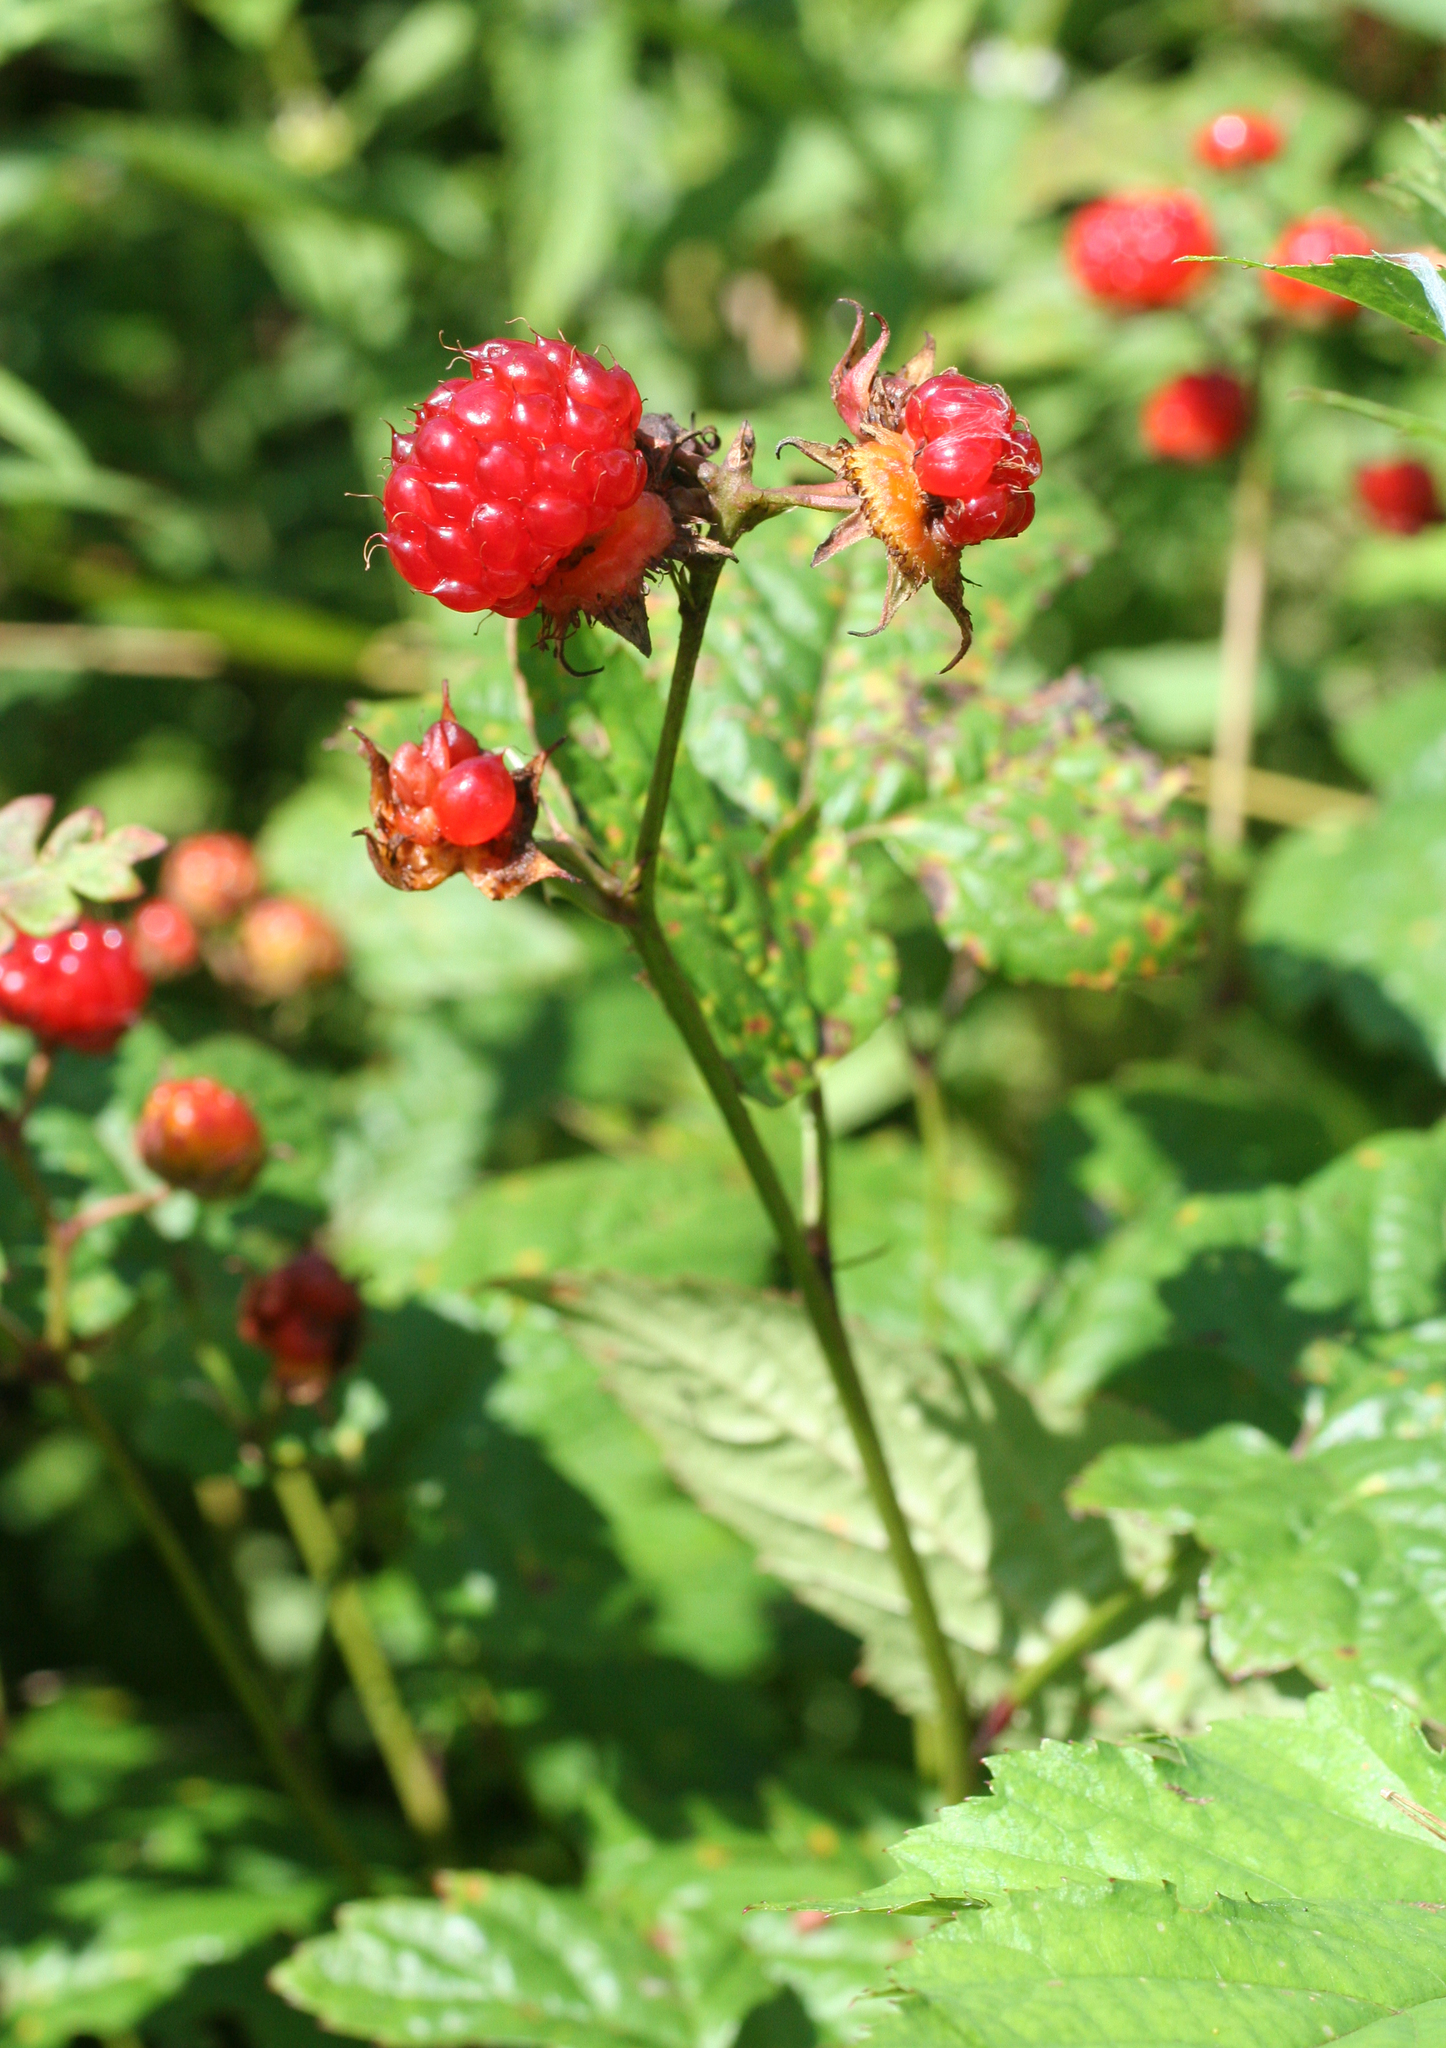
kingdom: Plantae
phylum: Tracheophyta
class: Magnoliopsida
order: Rosales
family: Rosaceae
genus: Rubus
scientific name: Rubus crataegifolius
